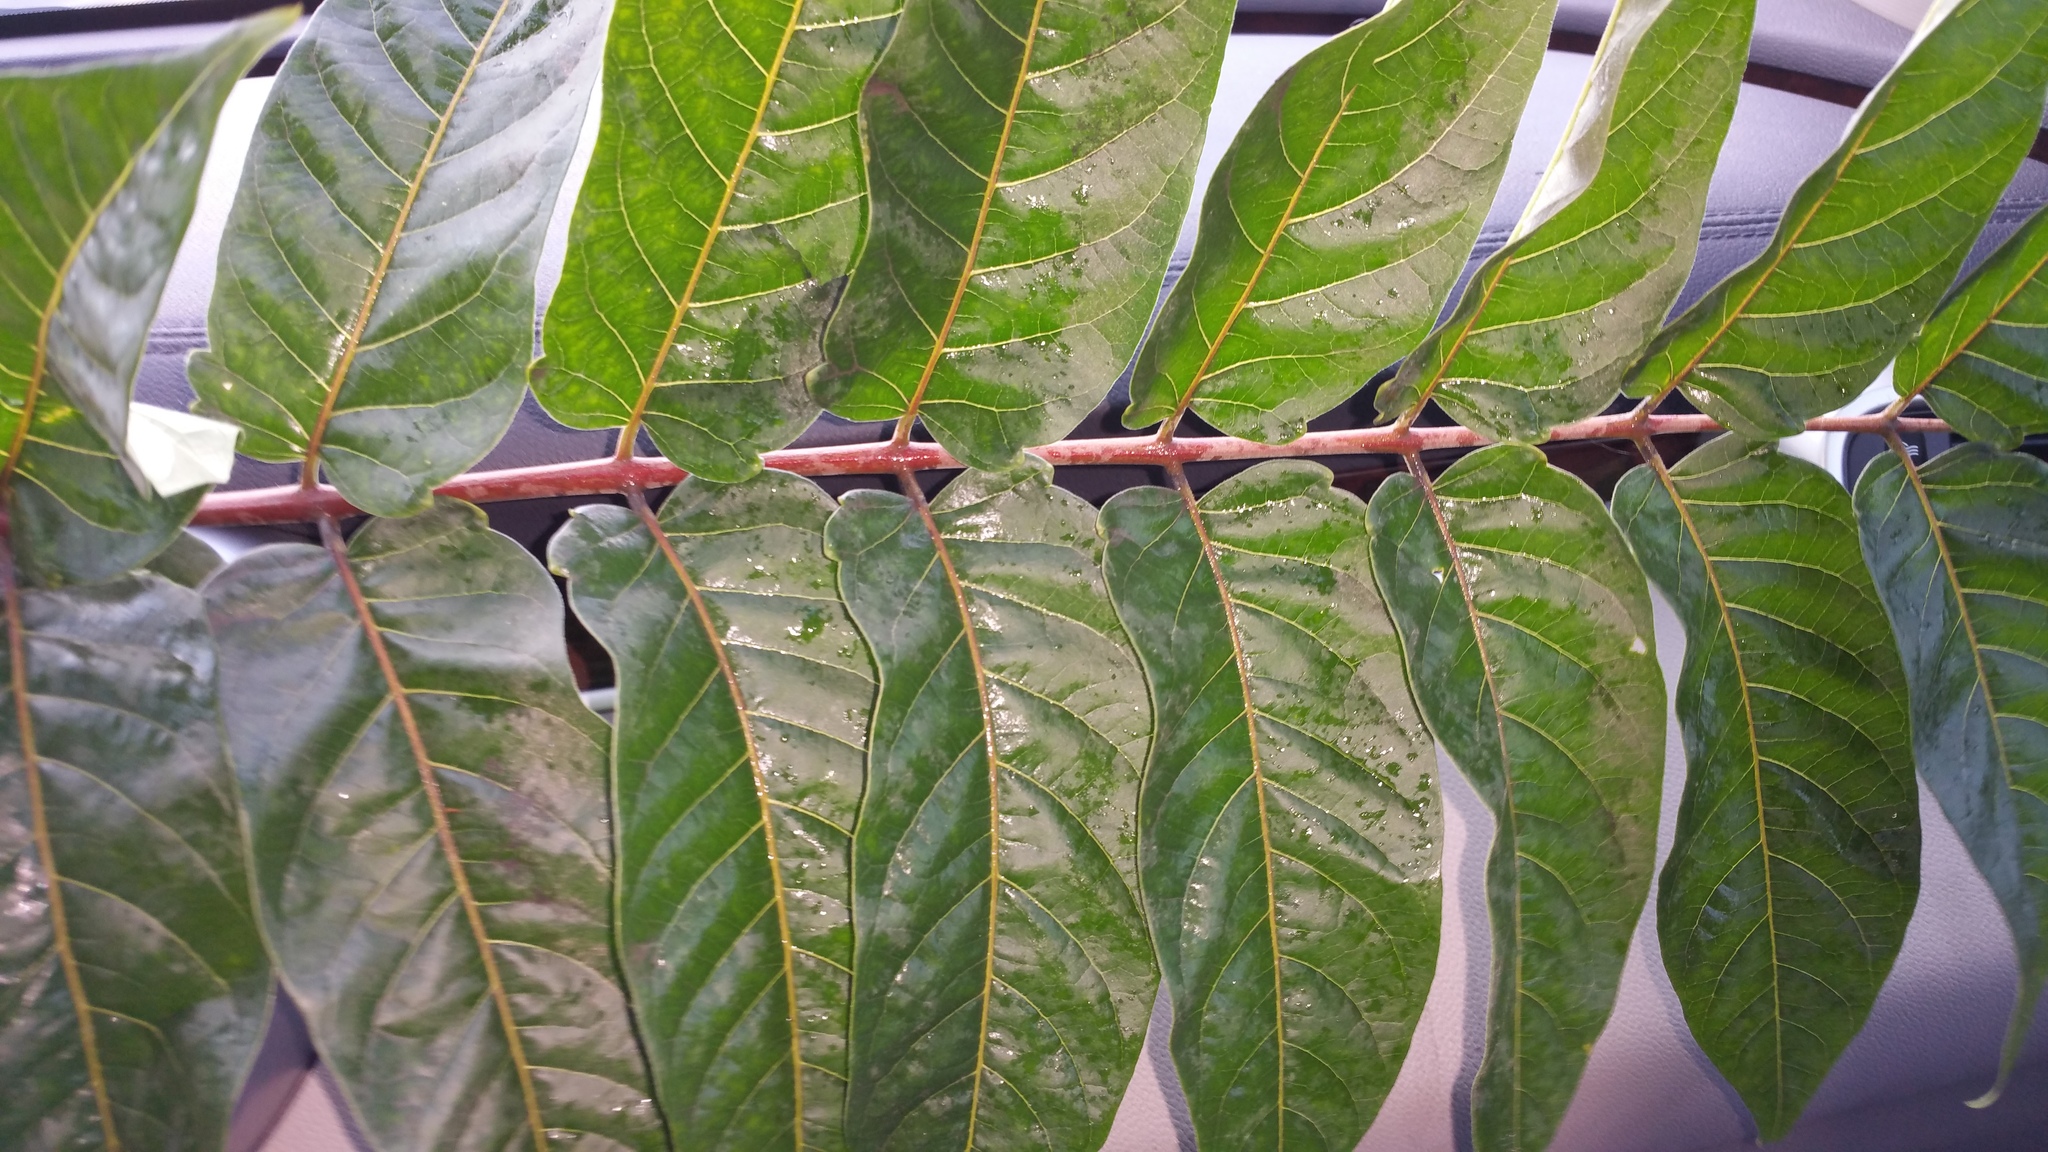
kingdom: Plantae
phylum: Tracheophyta
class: Magnoliopsida
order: Sapindales
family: Simaroubaceae
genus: Ailanthus
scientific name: Ailanthus altissima
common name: Tree-of-heaven
